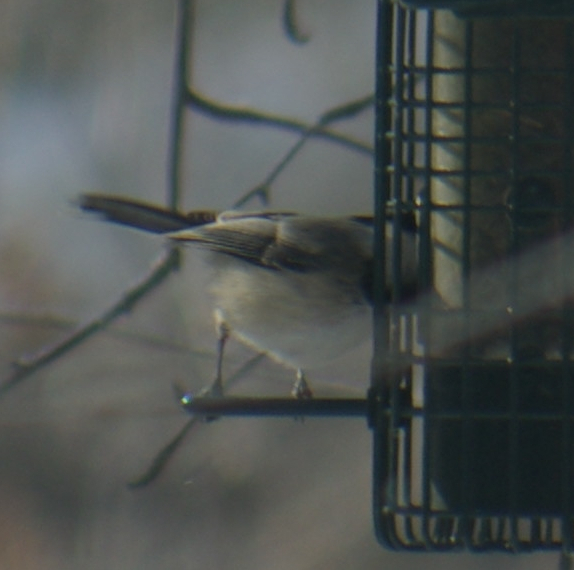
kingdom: Animalia
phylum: Chordata
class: Aves
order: Passeriformes
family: Paridae
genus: Poecile
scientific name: Poecile atricapillus
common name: Black-capped chickadee
